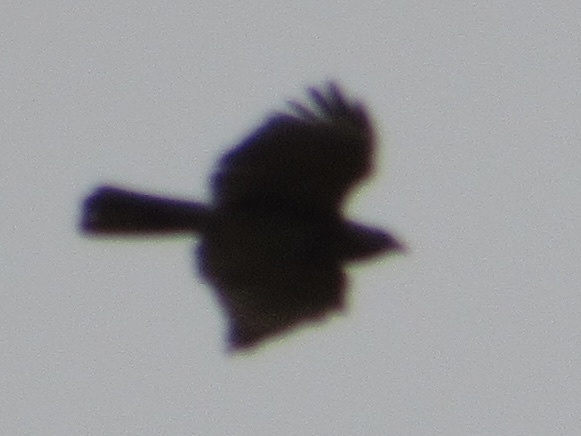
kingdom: Animalia
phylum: Chordata
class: Aves
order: Accipitriformes
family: Accipitridae
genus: Buteo
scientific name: Buteo lineatus
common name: Red-shouldered hawk
